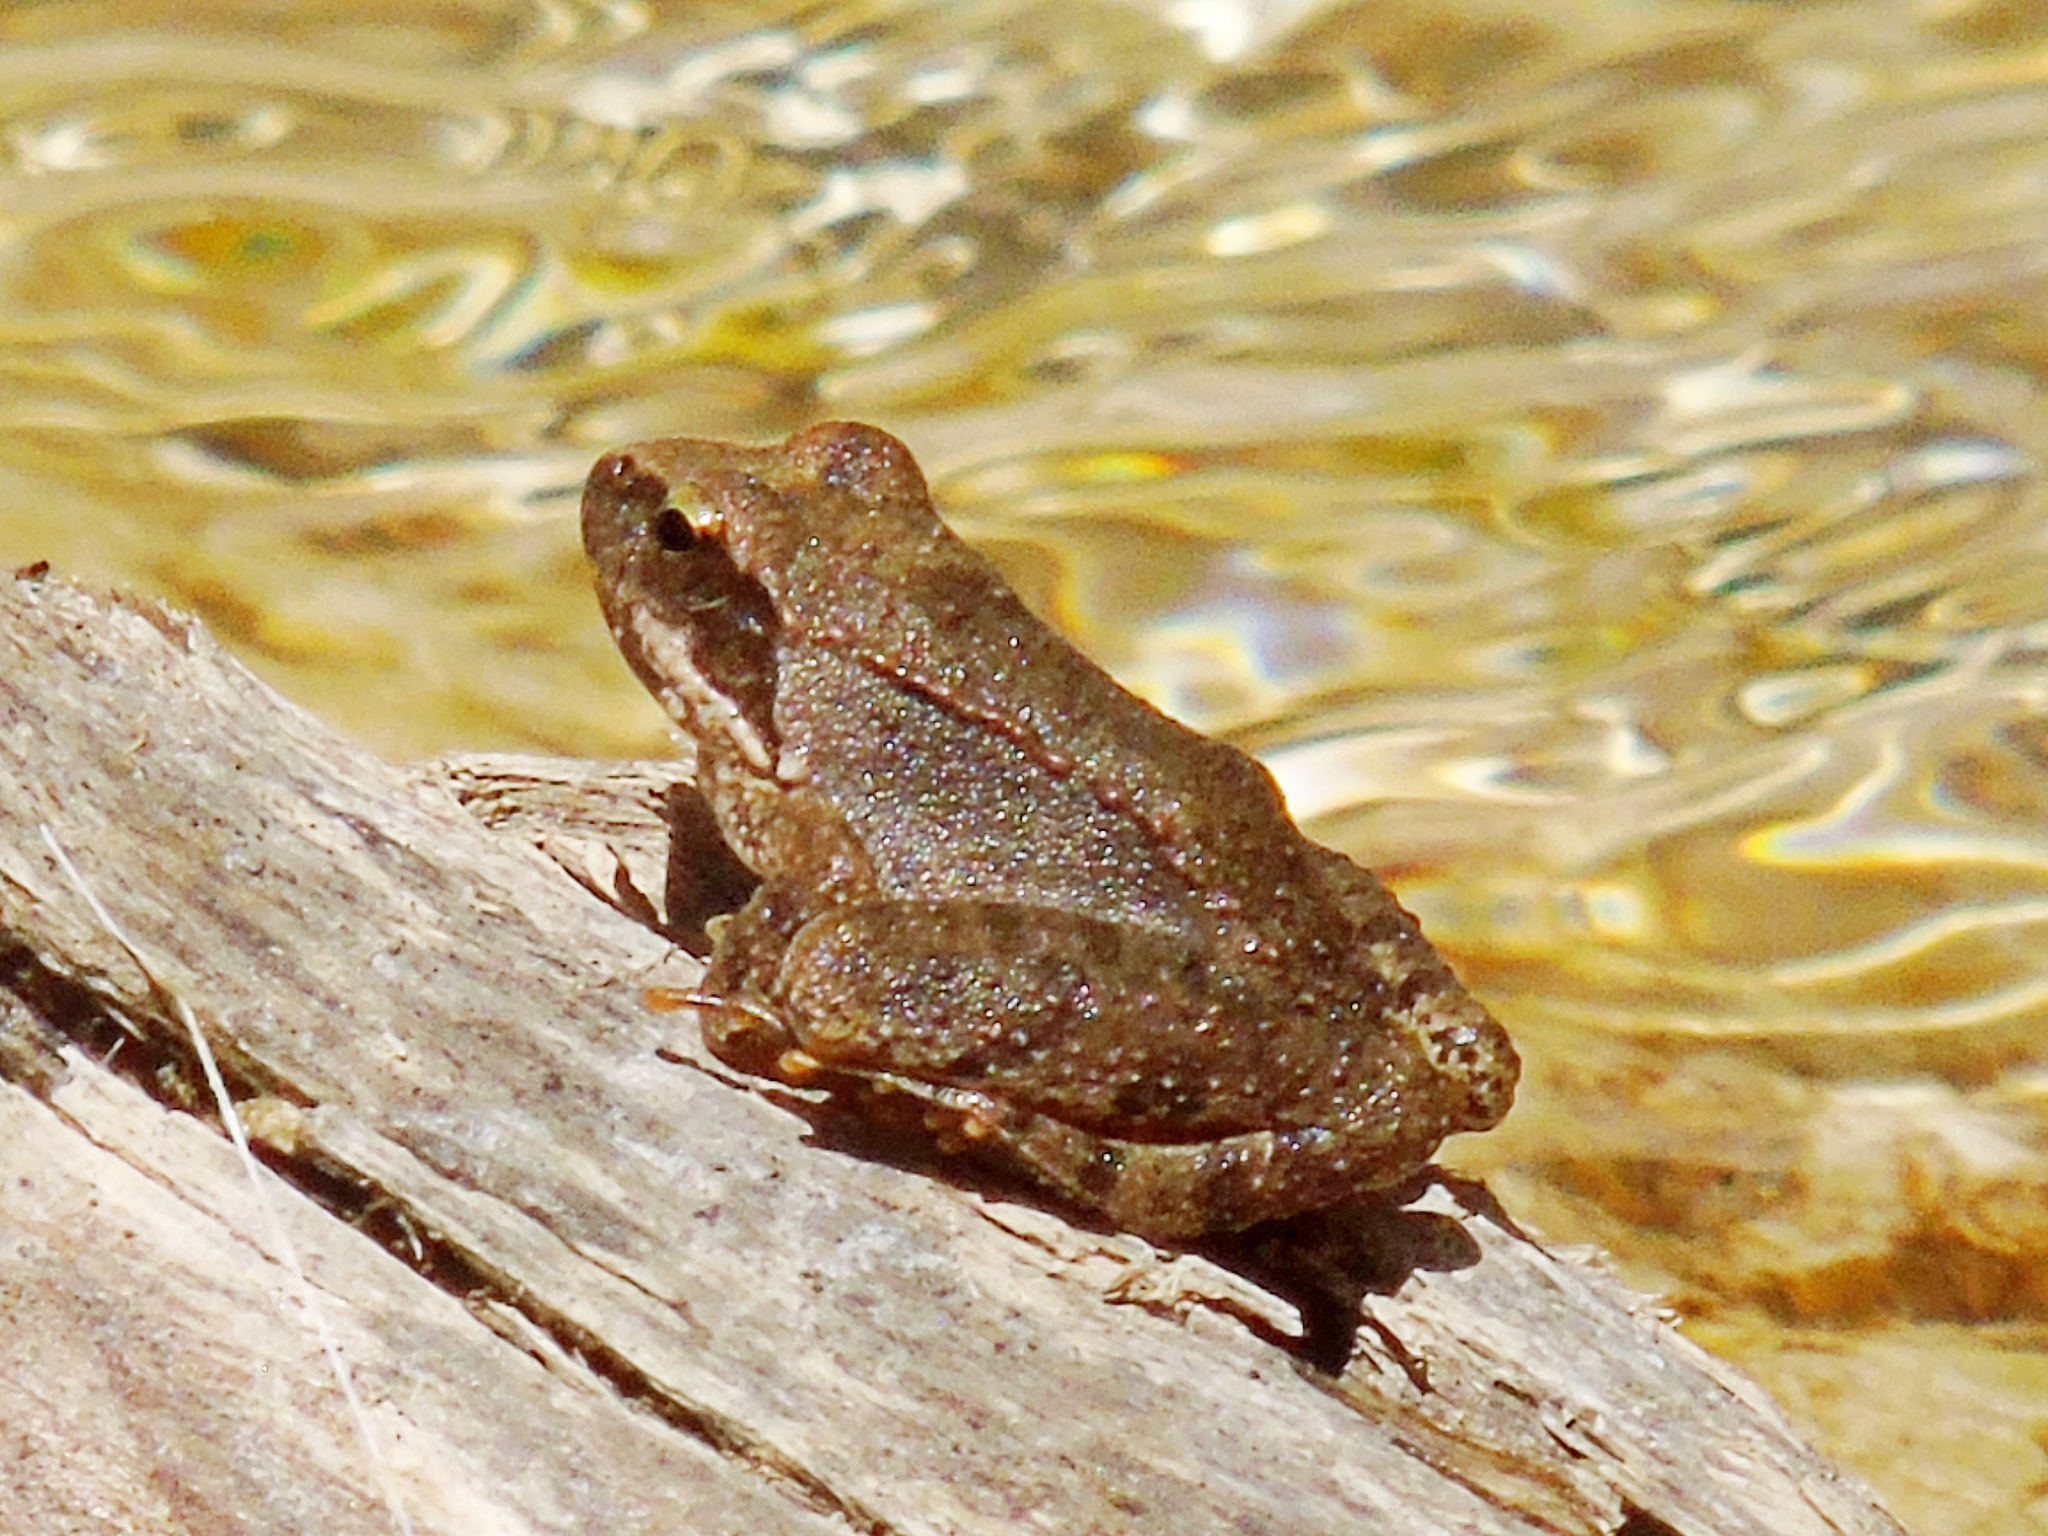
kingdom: Animalia
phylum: Chordata
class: Amphibia
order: Anura
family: Ranidae
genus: Rana
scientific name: Rana graeca
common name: Greek stream frog
